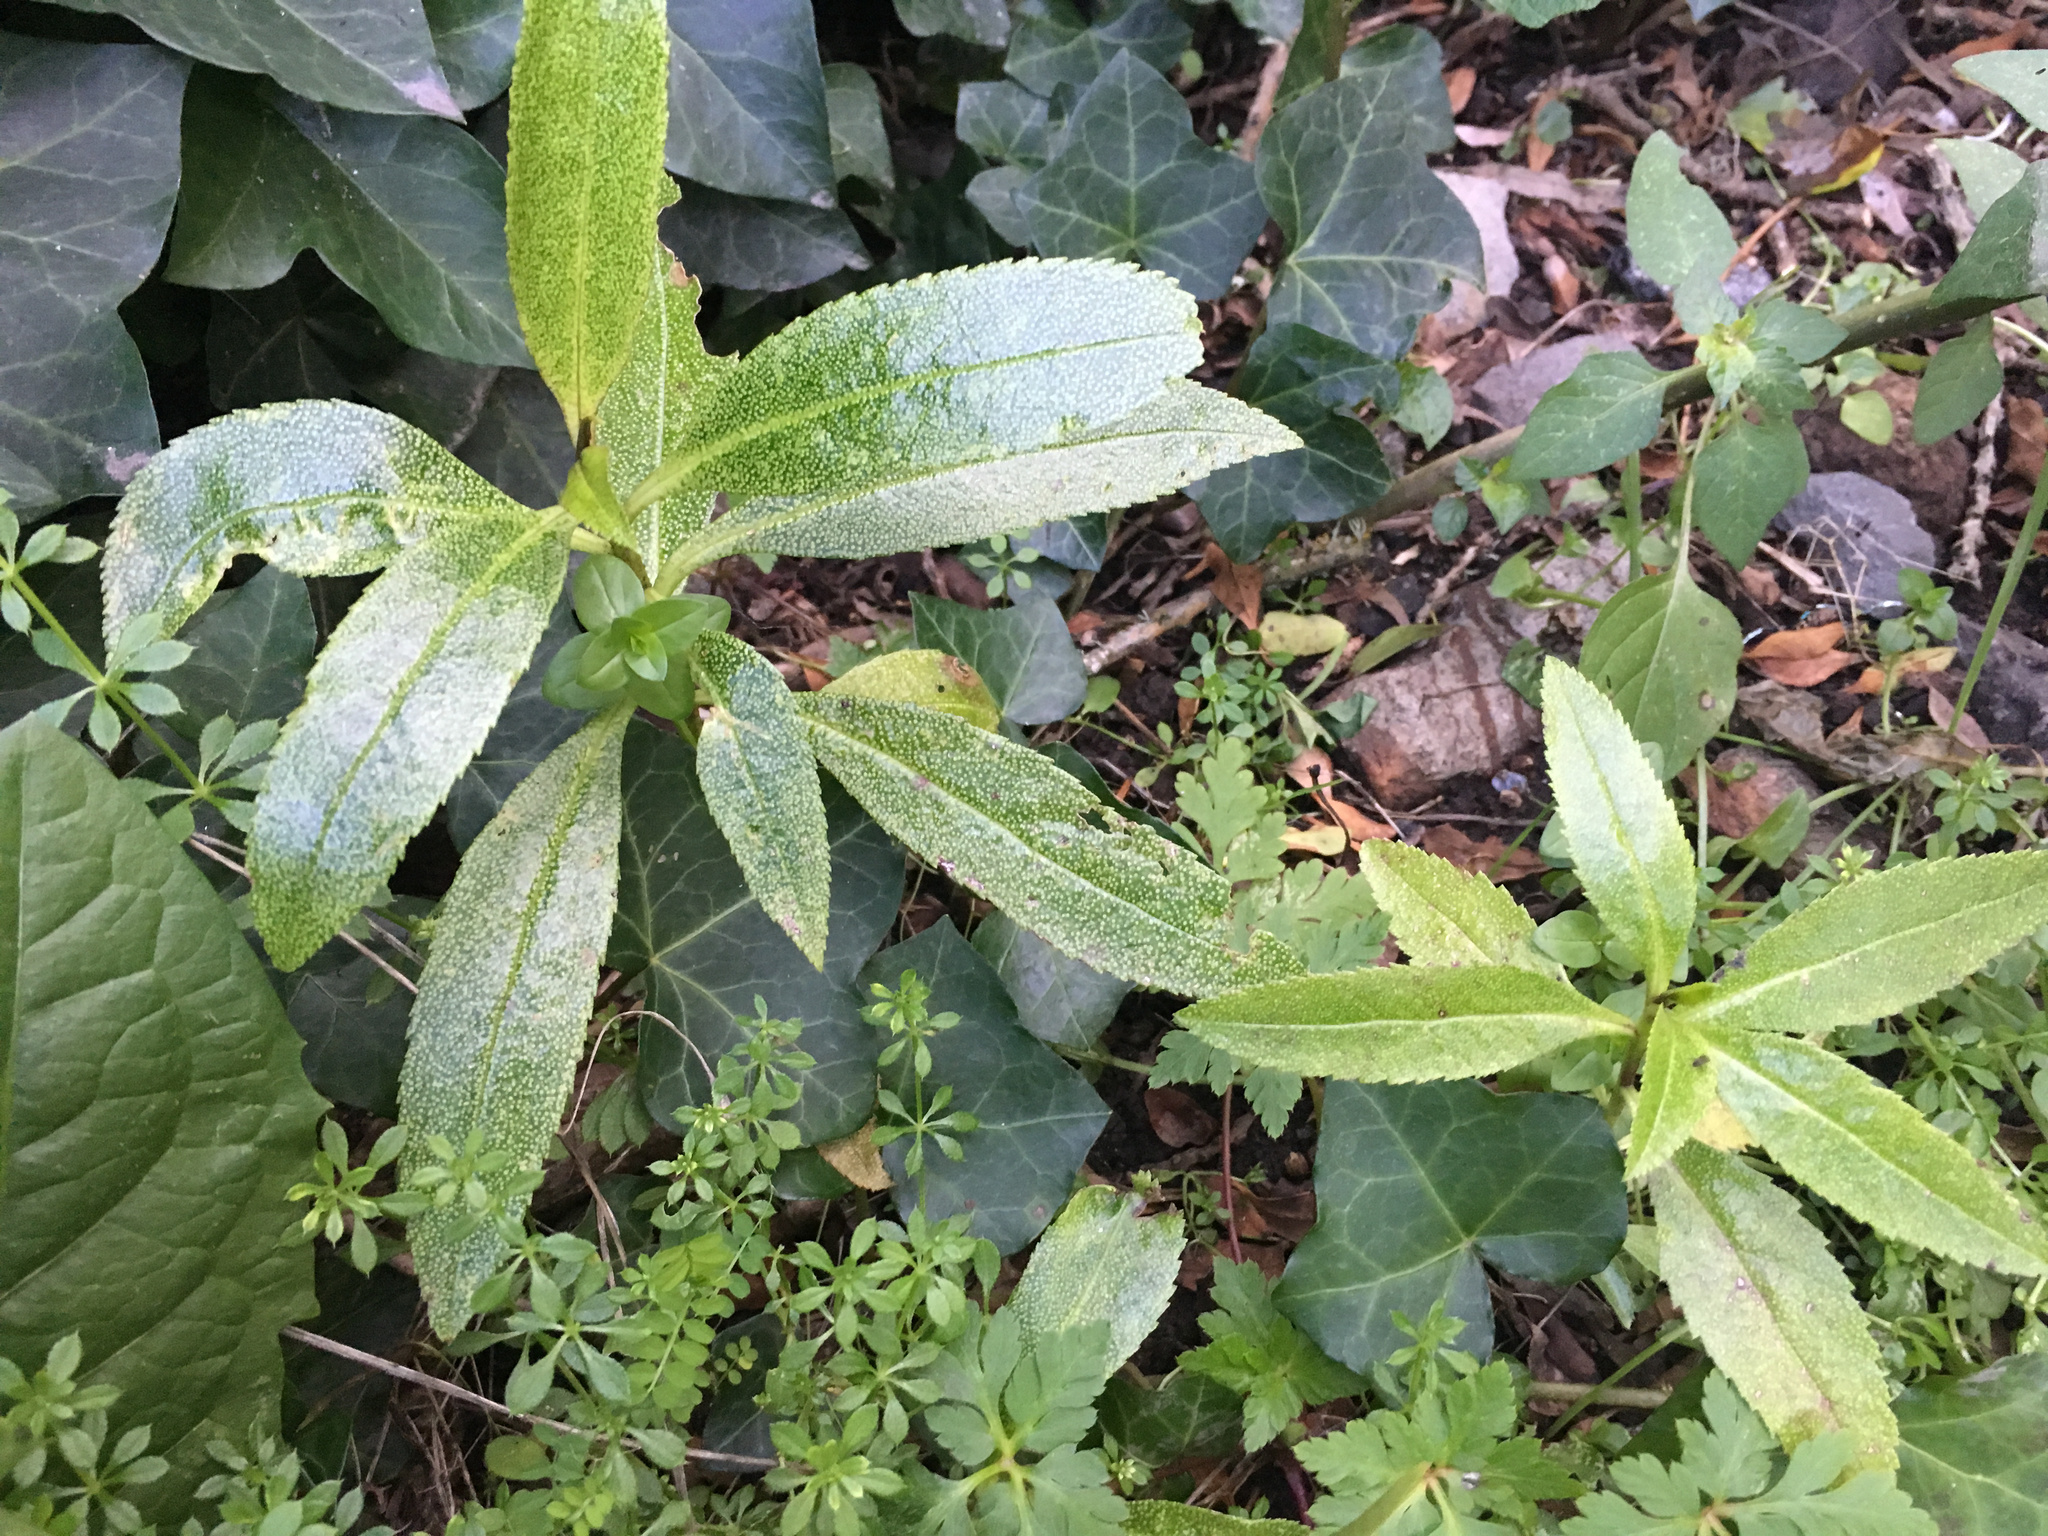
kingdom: Plantae
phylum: Tracheophyta
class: Magnoliopsida
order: Lamiales
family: Scrophulariaceae
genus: Myoporum
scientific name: Myoporum laetum
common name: Ngaio tree
